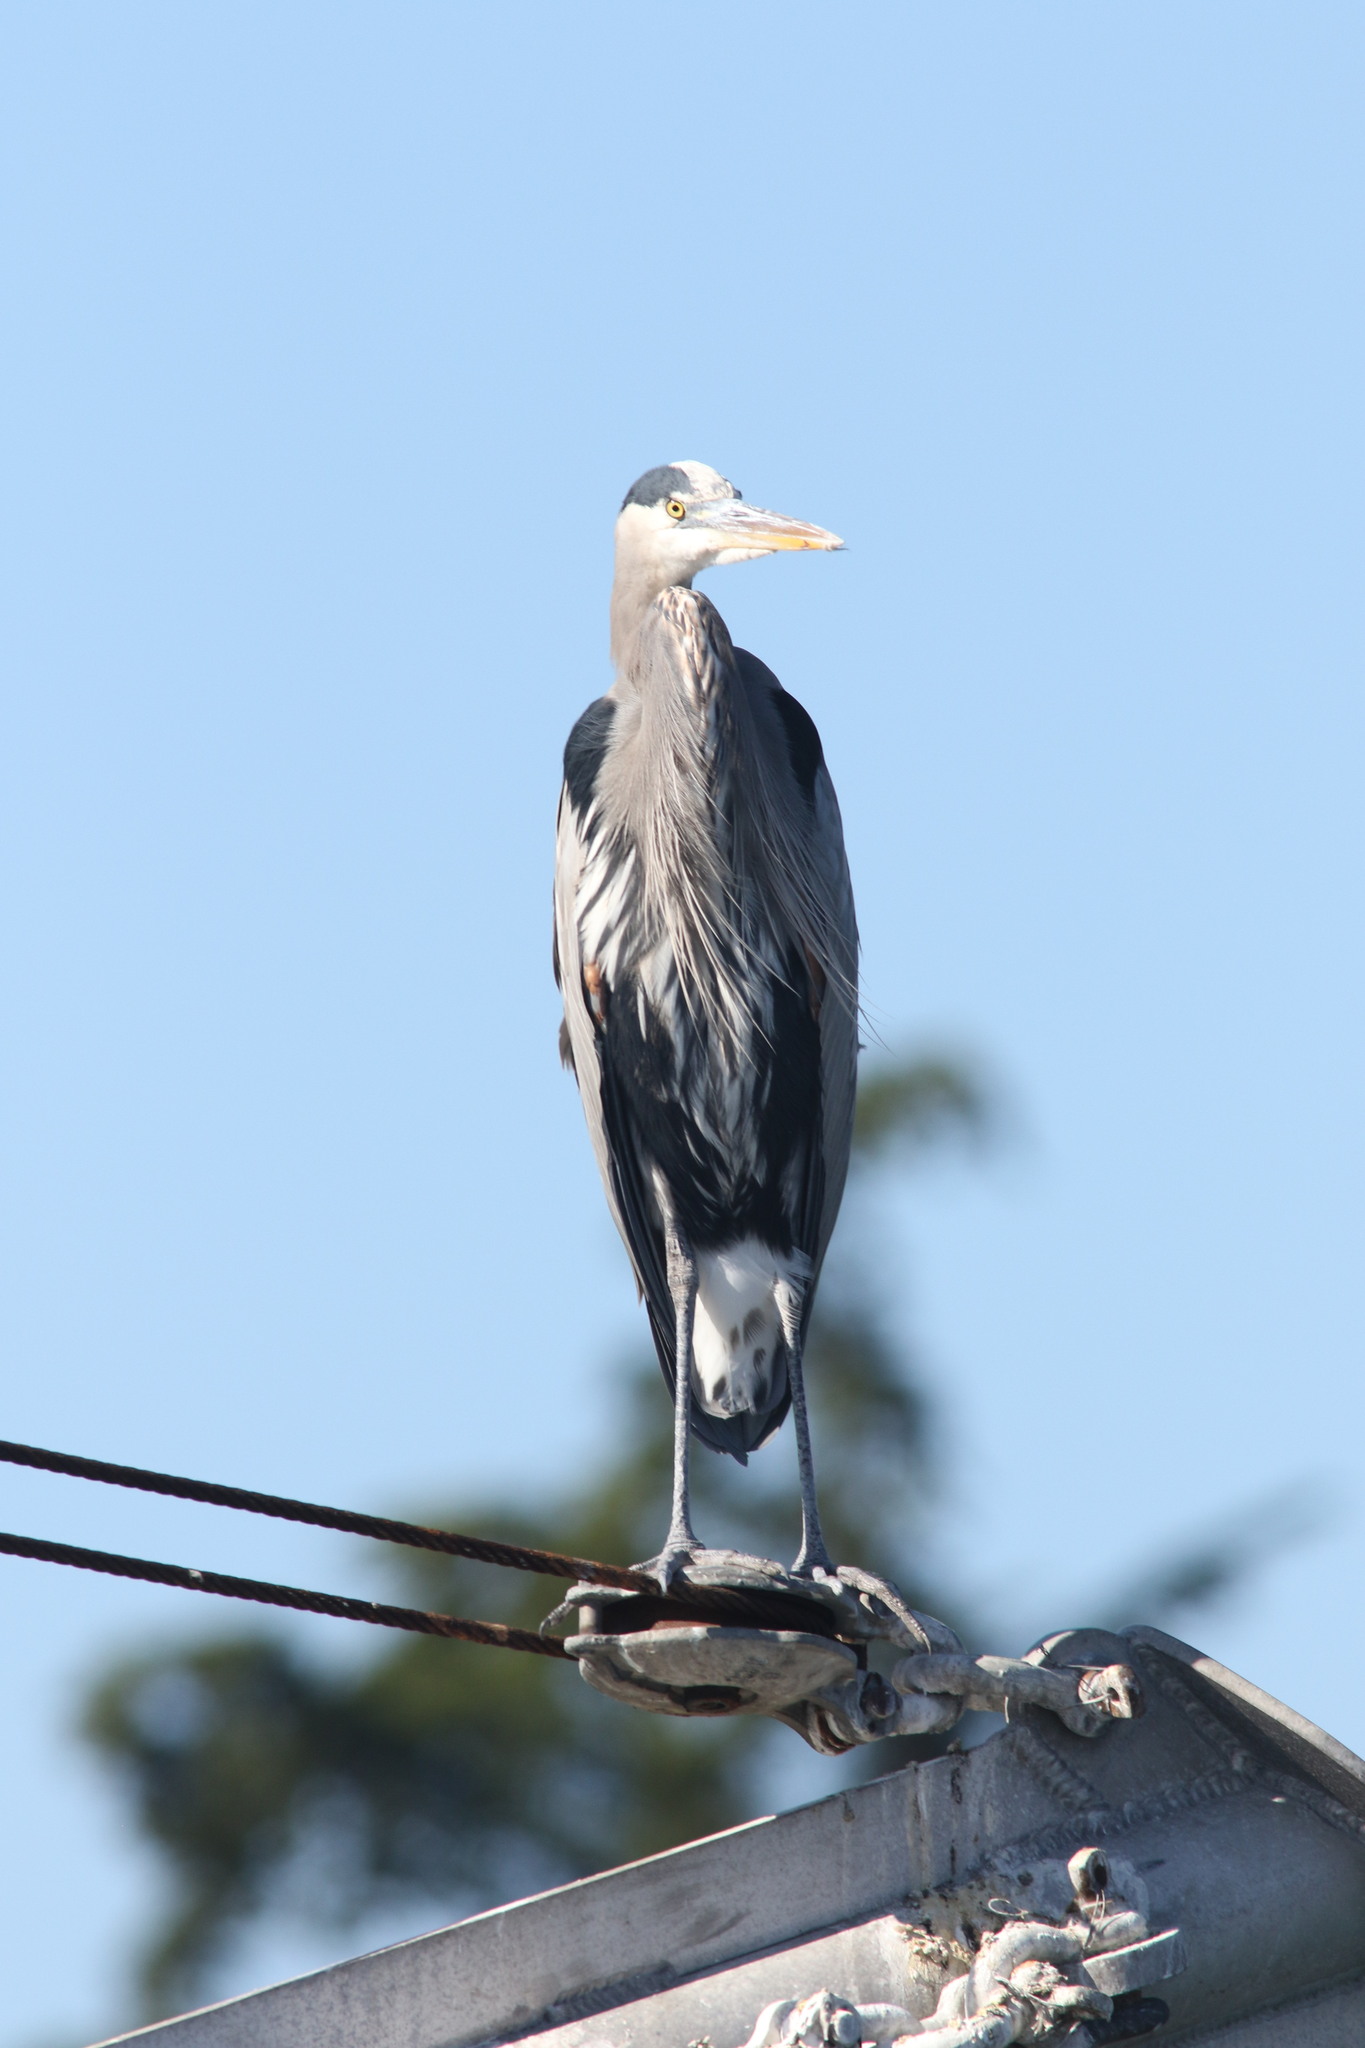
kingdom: Animalia
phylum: Chordata
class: Aves
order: Pelecaniformes
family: Ardeidae
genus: Ardea
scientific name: Ardea herodias
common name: Great blue heron
